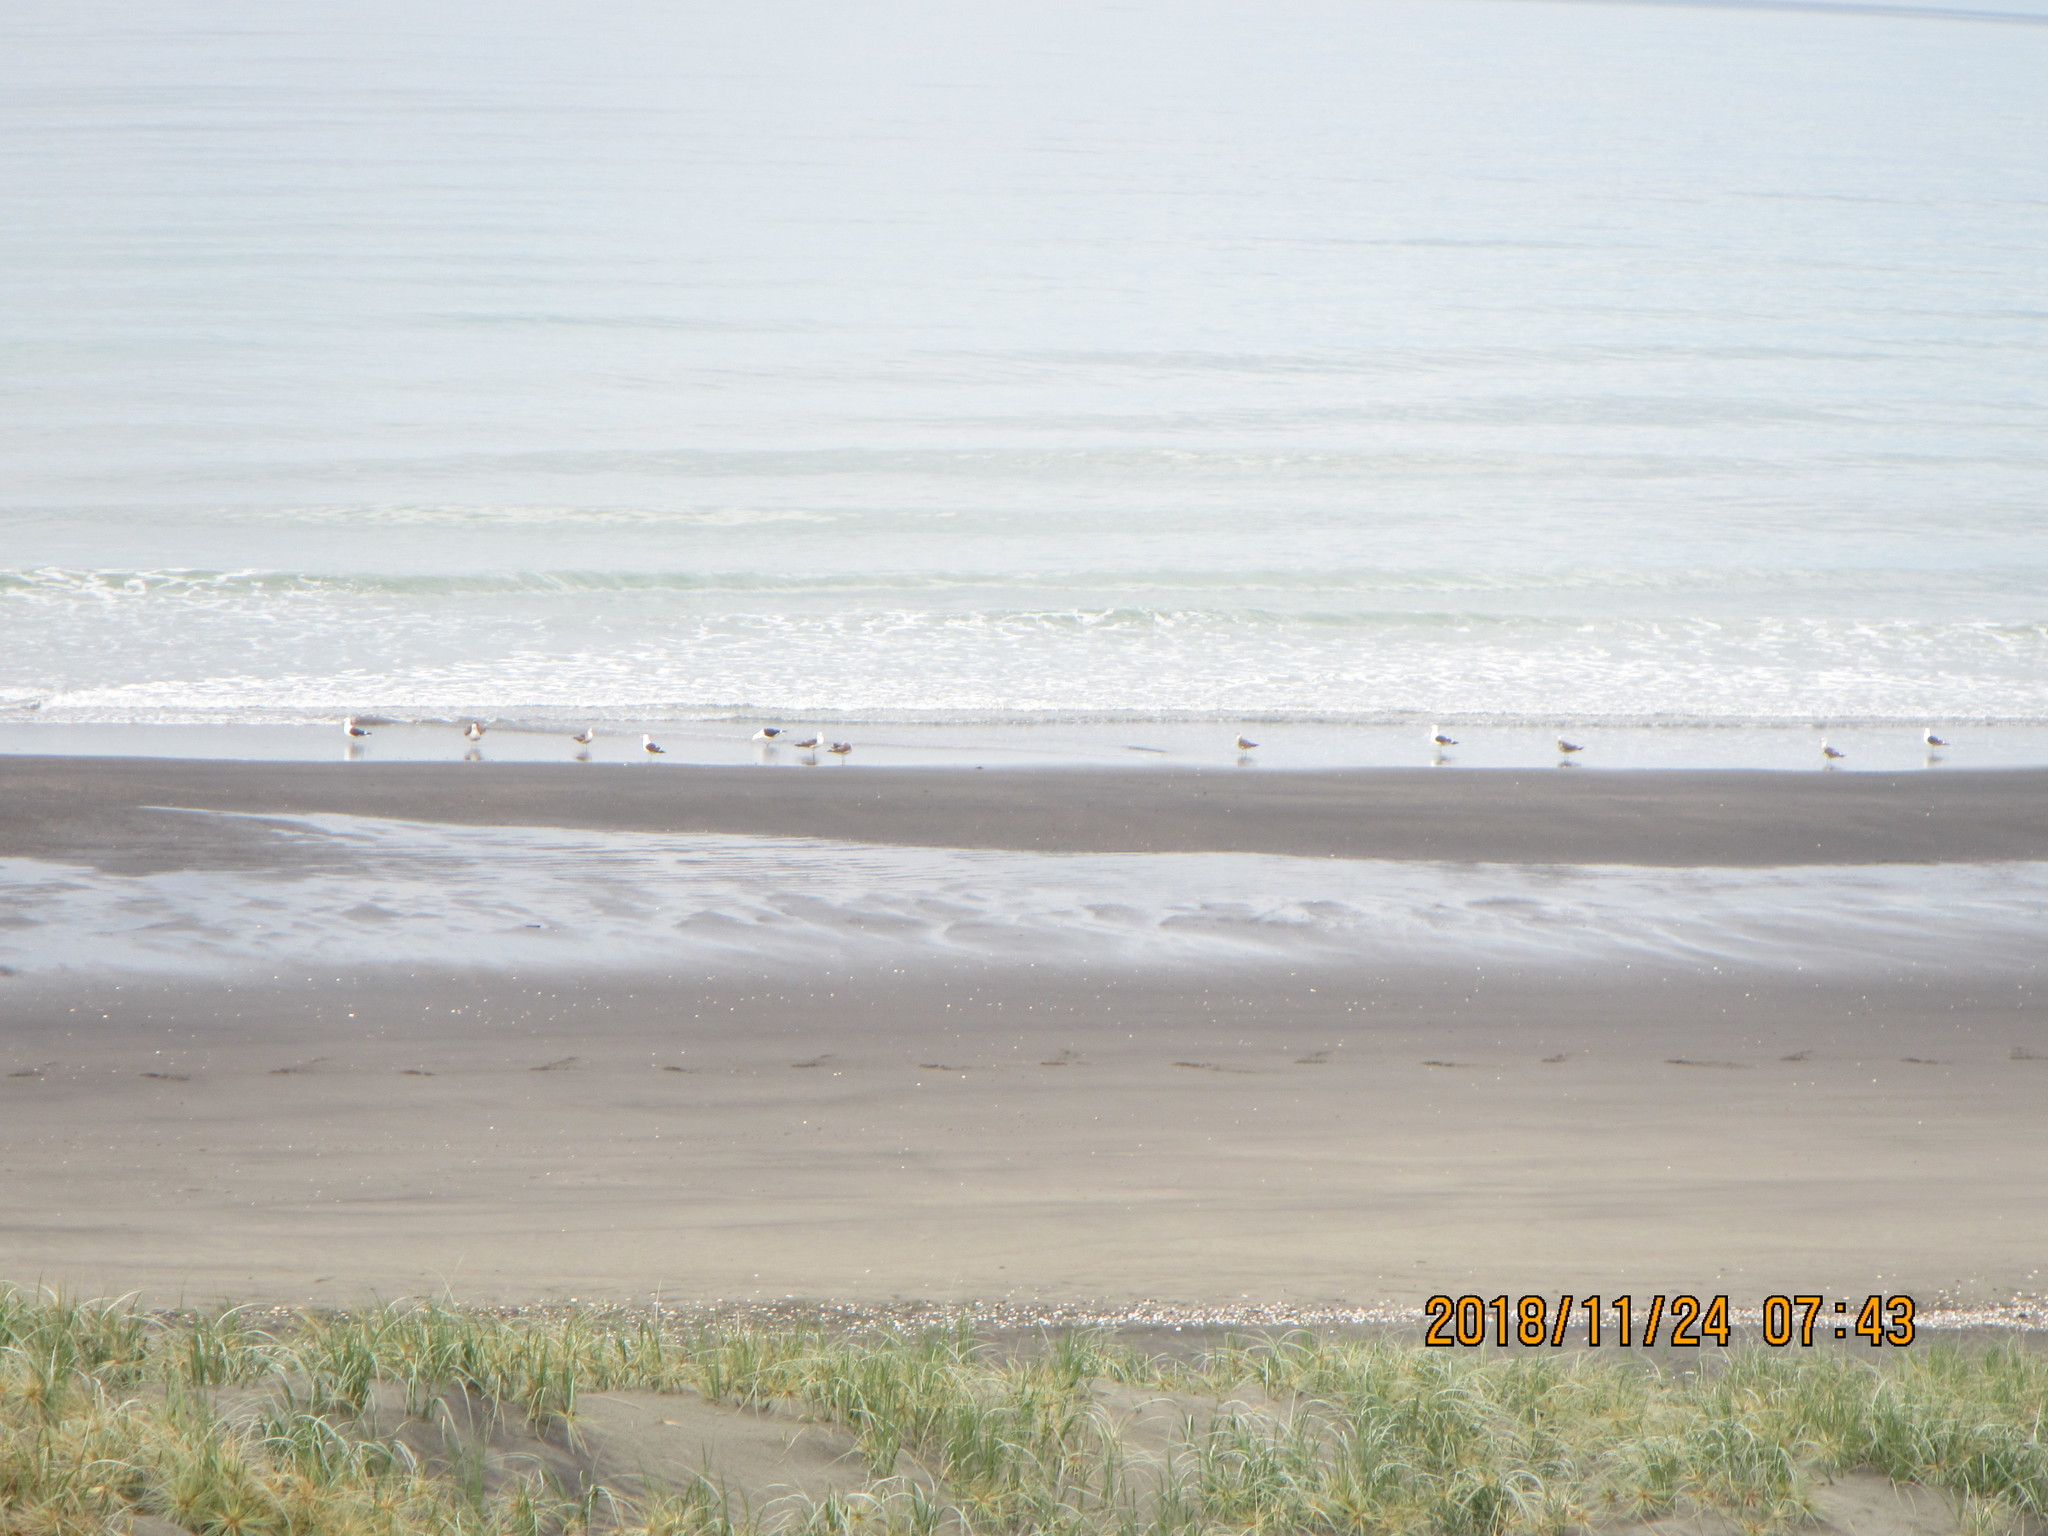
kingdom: Animalia
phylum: Chordata
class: Aves
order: Charadriiformes
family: Laridae
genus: Larus
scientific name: Larus dominicanus
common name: Kelp gull
